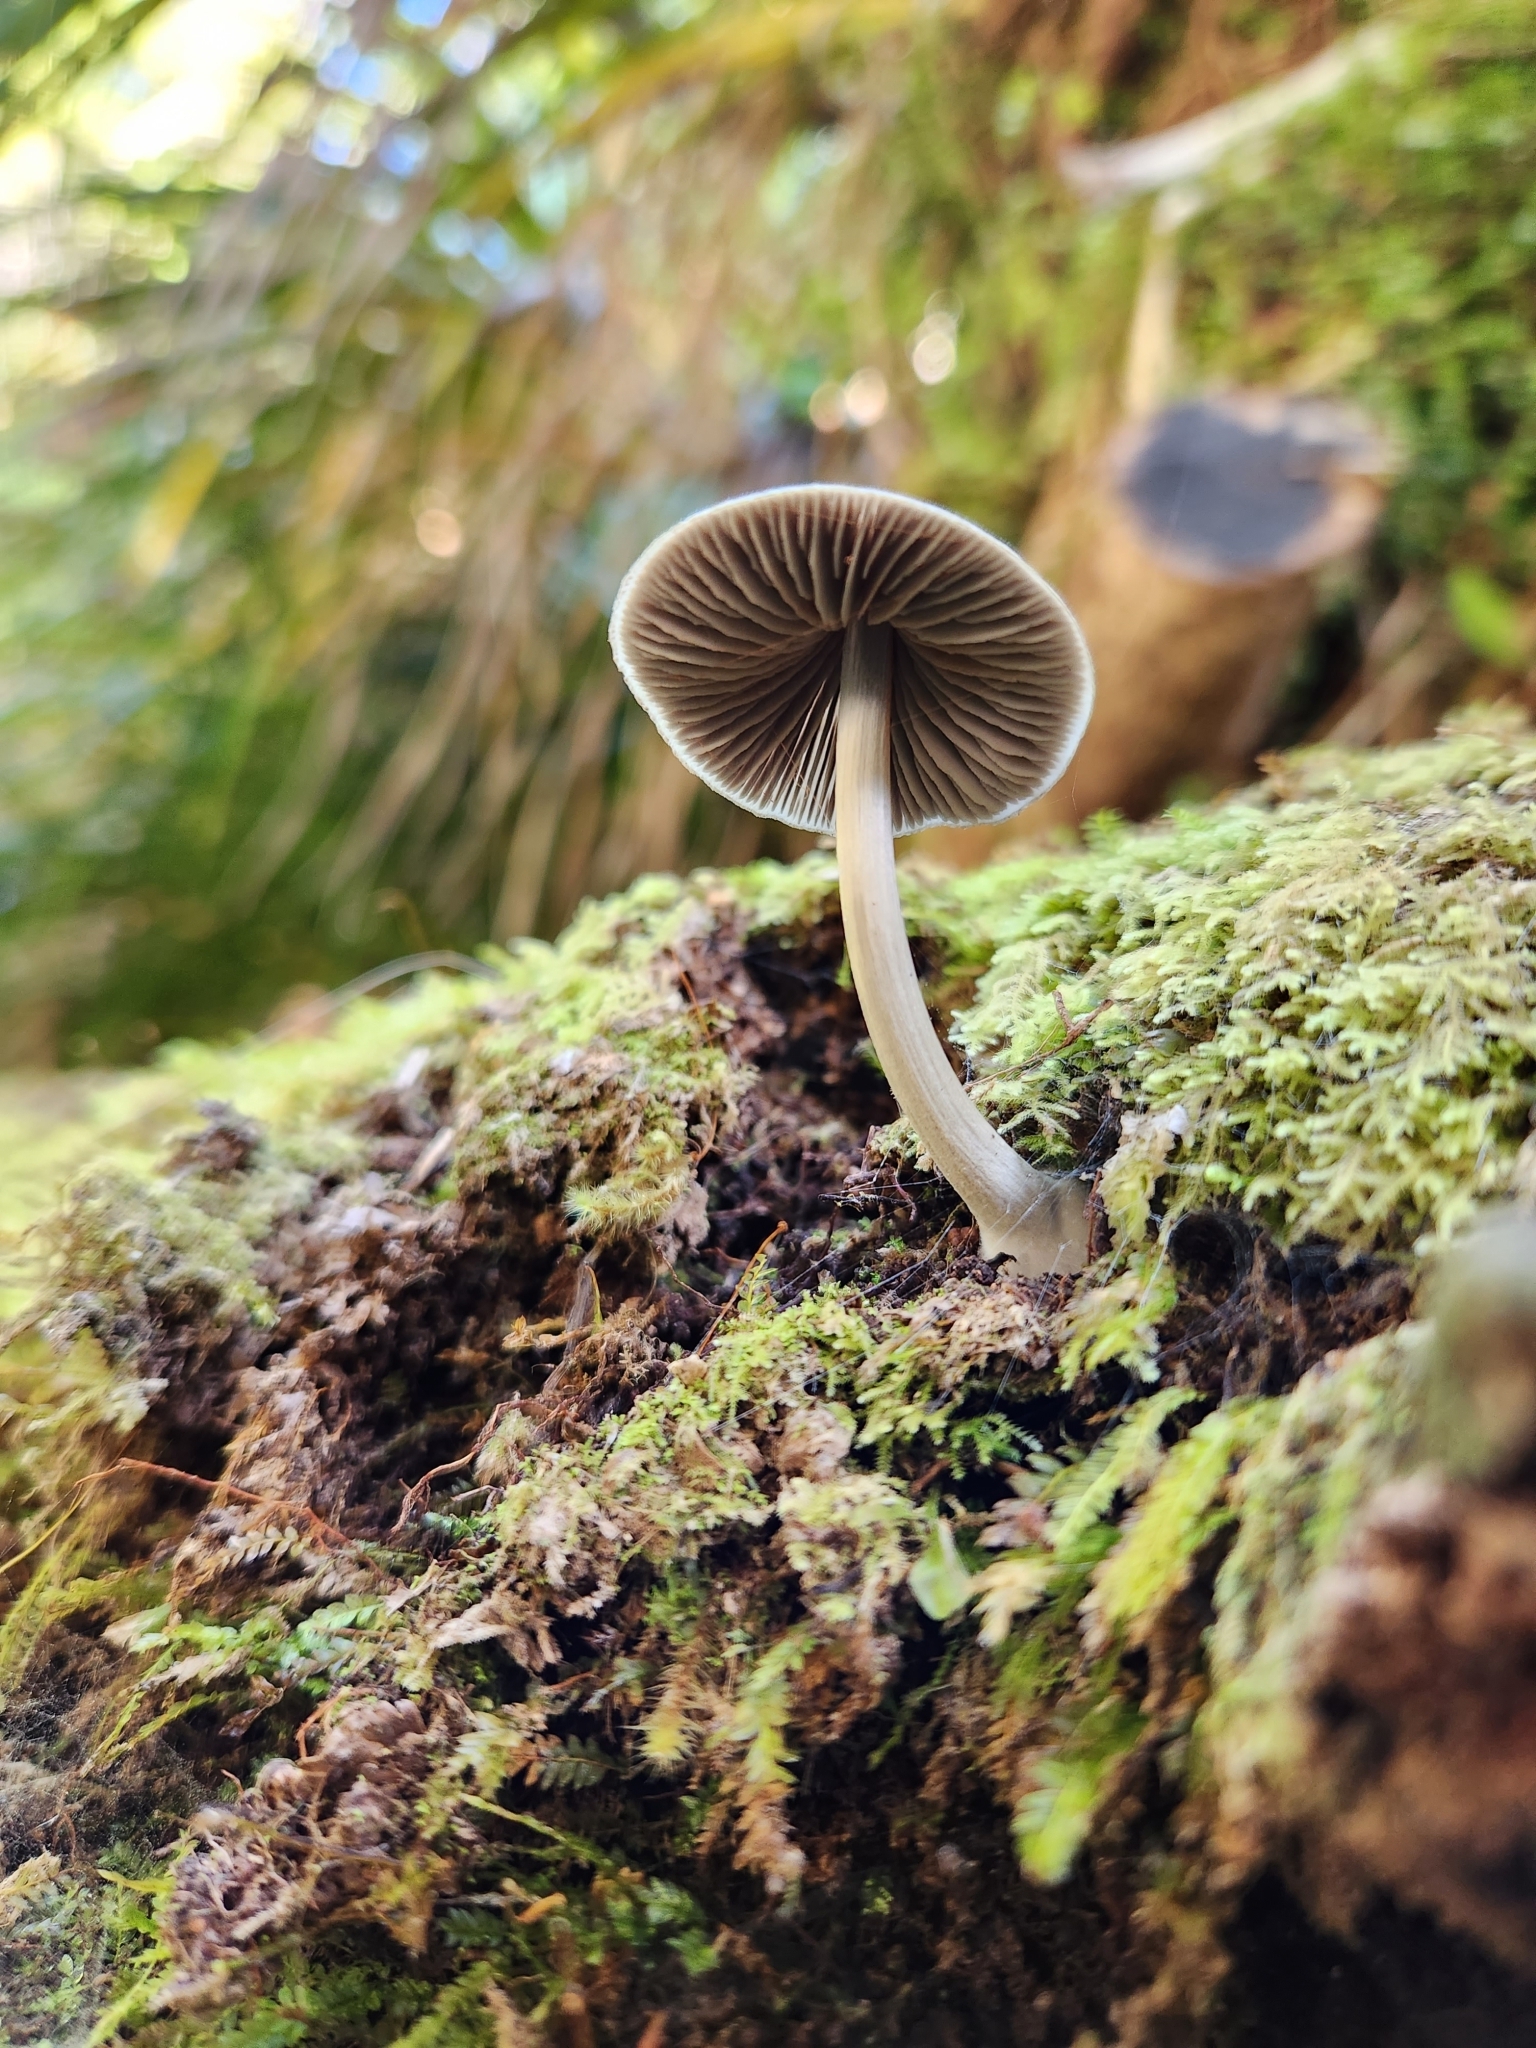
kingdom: Fungi
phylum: Basidiomycota
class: Agaricomycetes
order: Agaricales
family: Entolomataceae
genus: Entoloma
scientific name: Entoloma canoconicum
